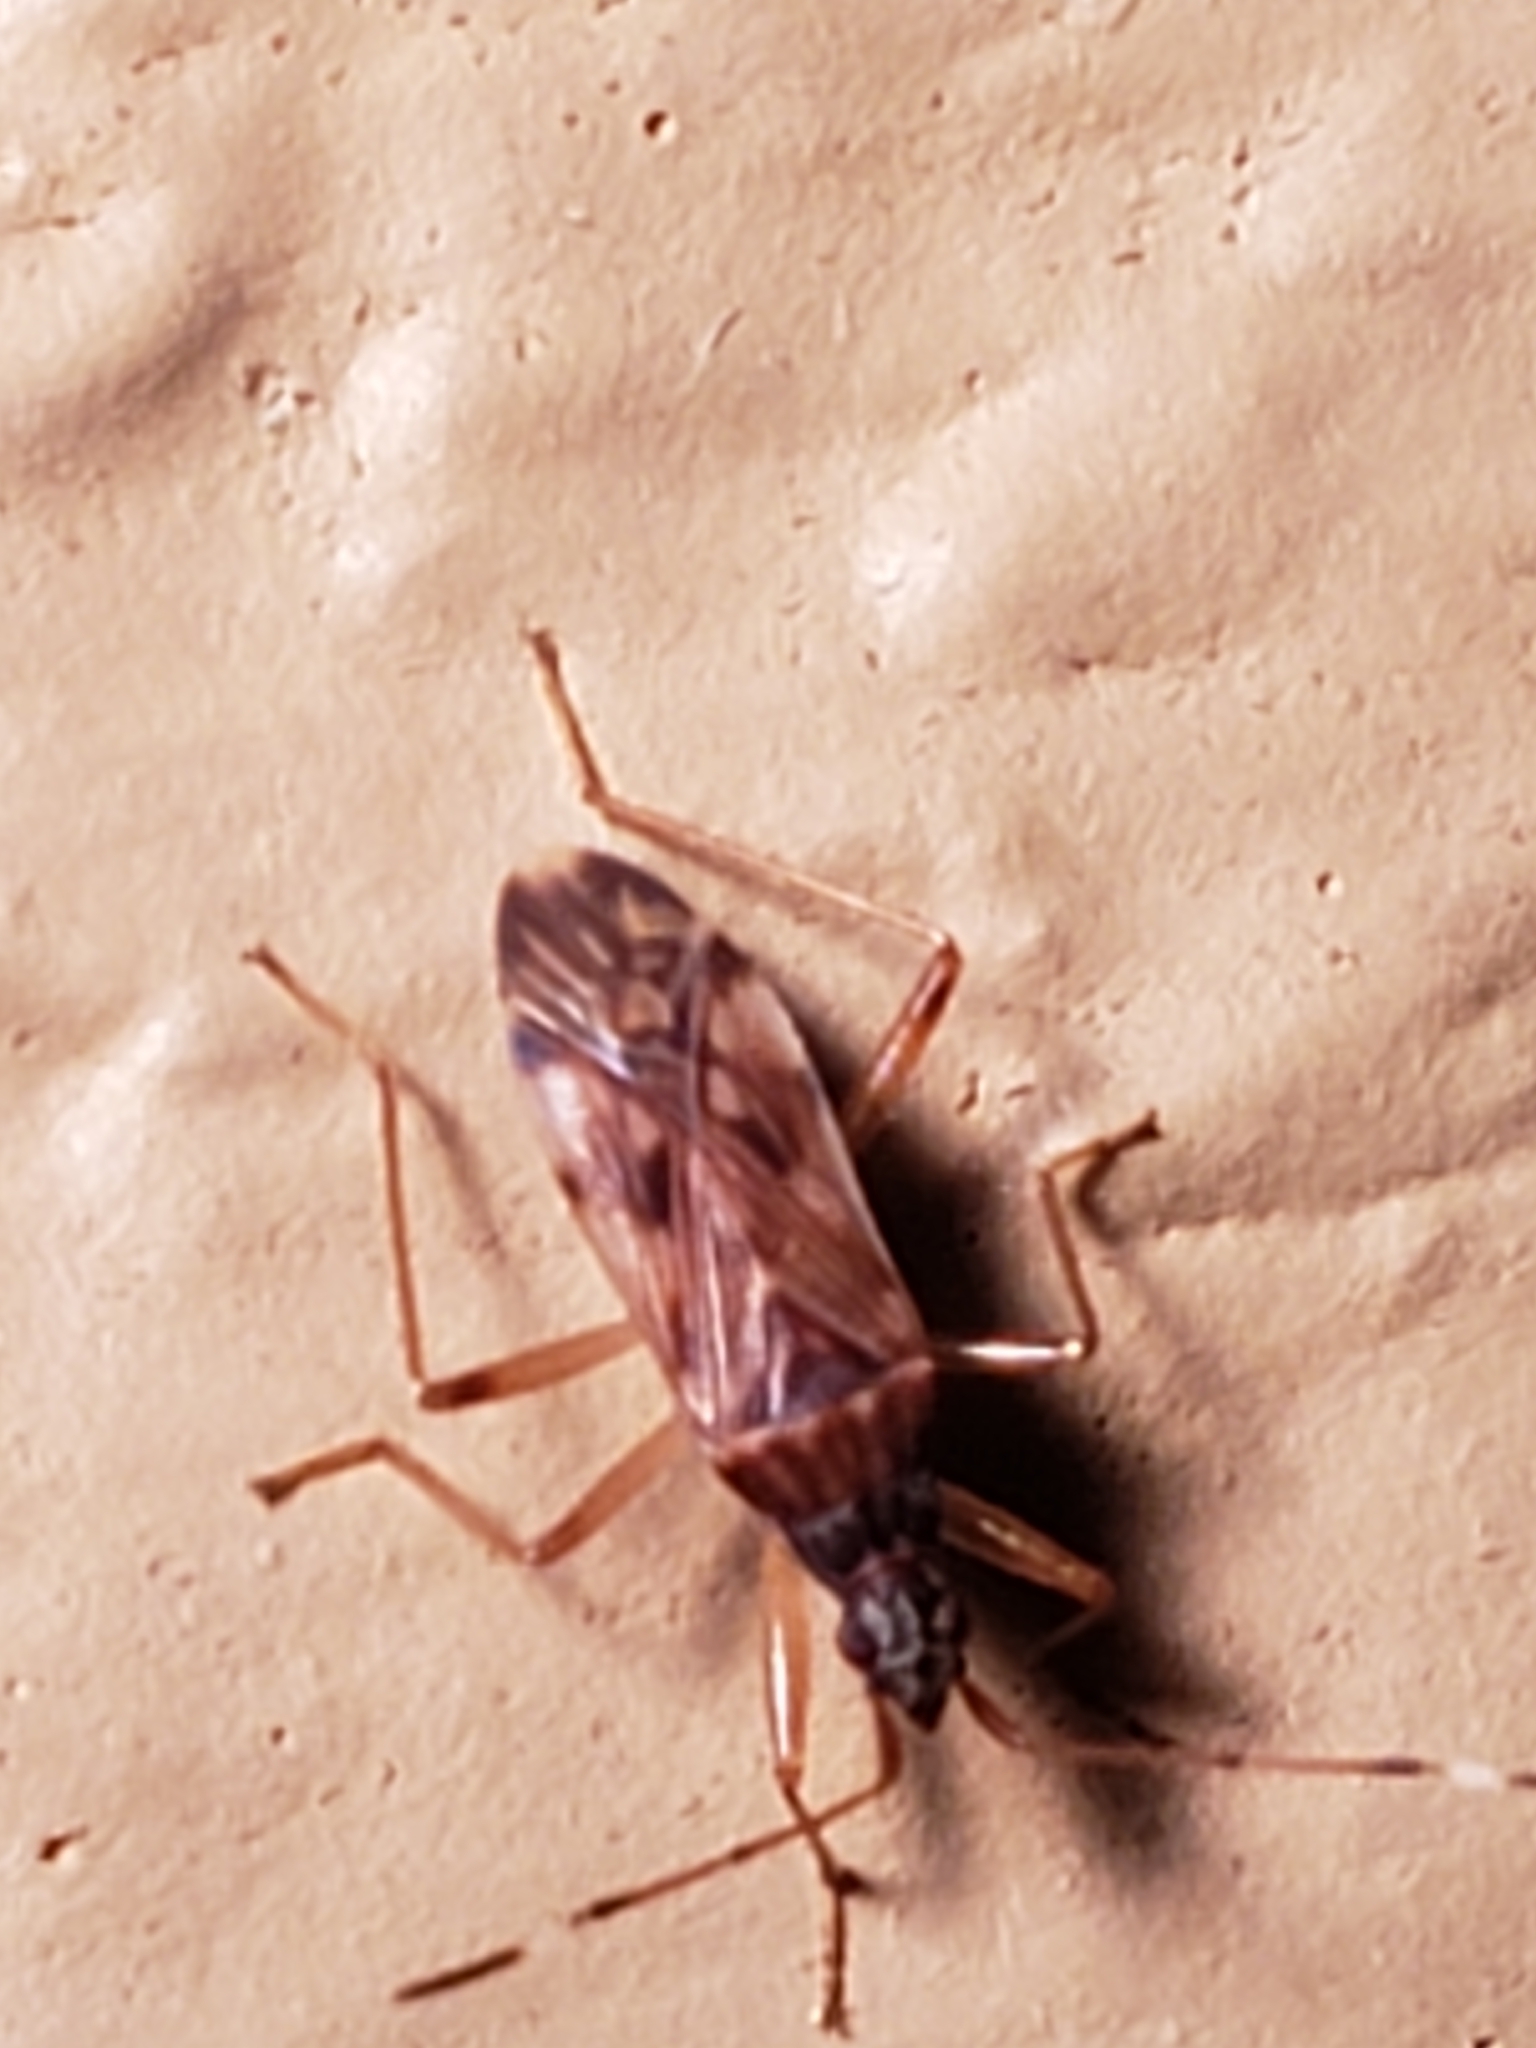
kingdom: Animalia
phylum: Arthropoda
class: Insecta
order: Hemiptera
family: Rhyparochromidae
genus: Ozophora
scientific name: Ozophora picturata
